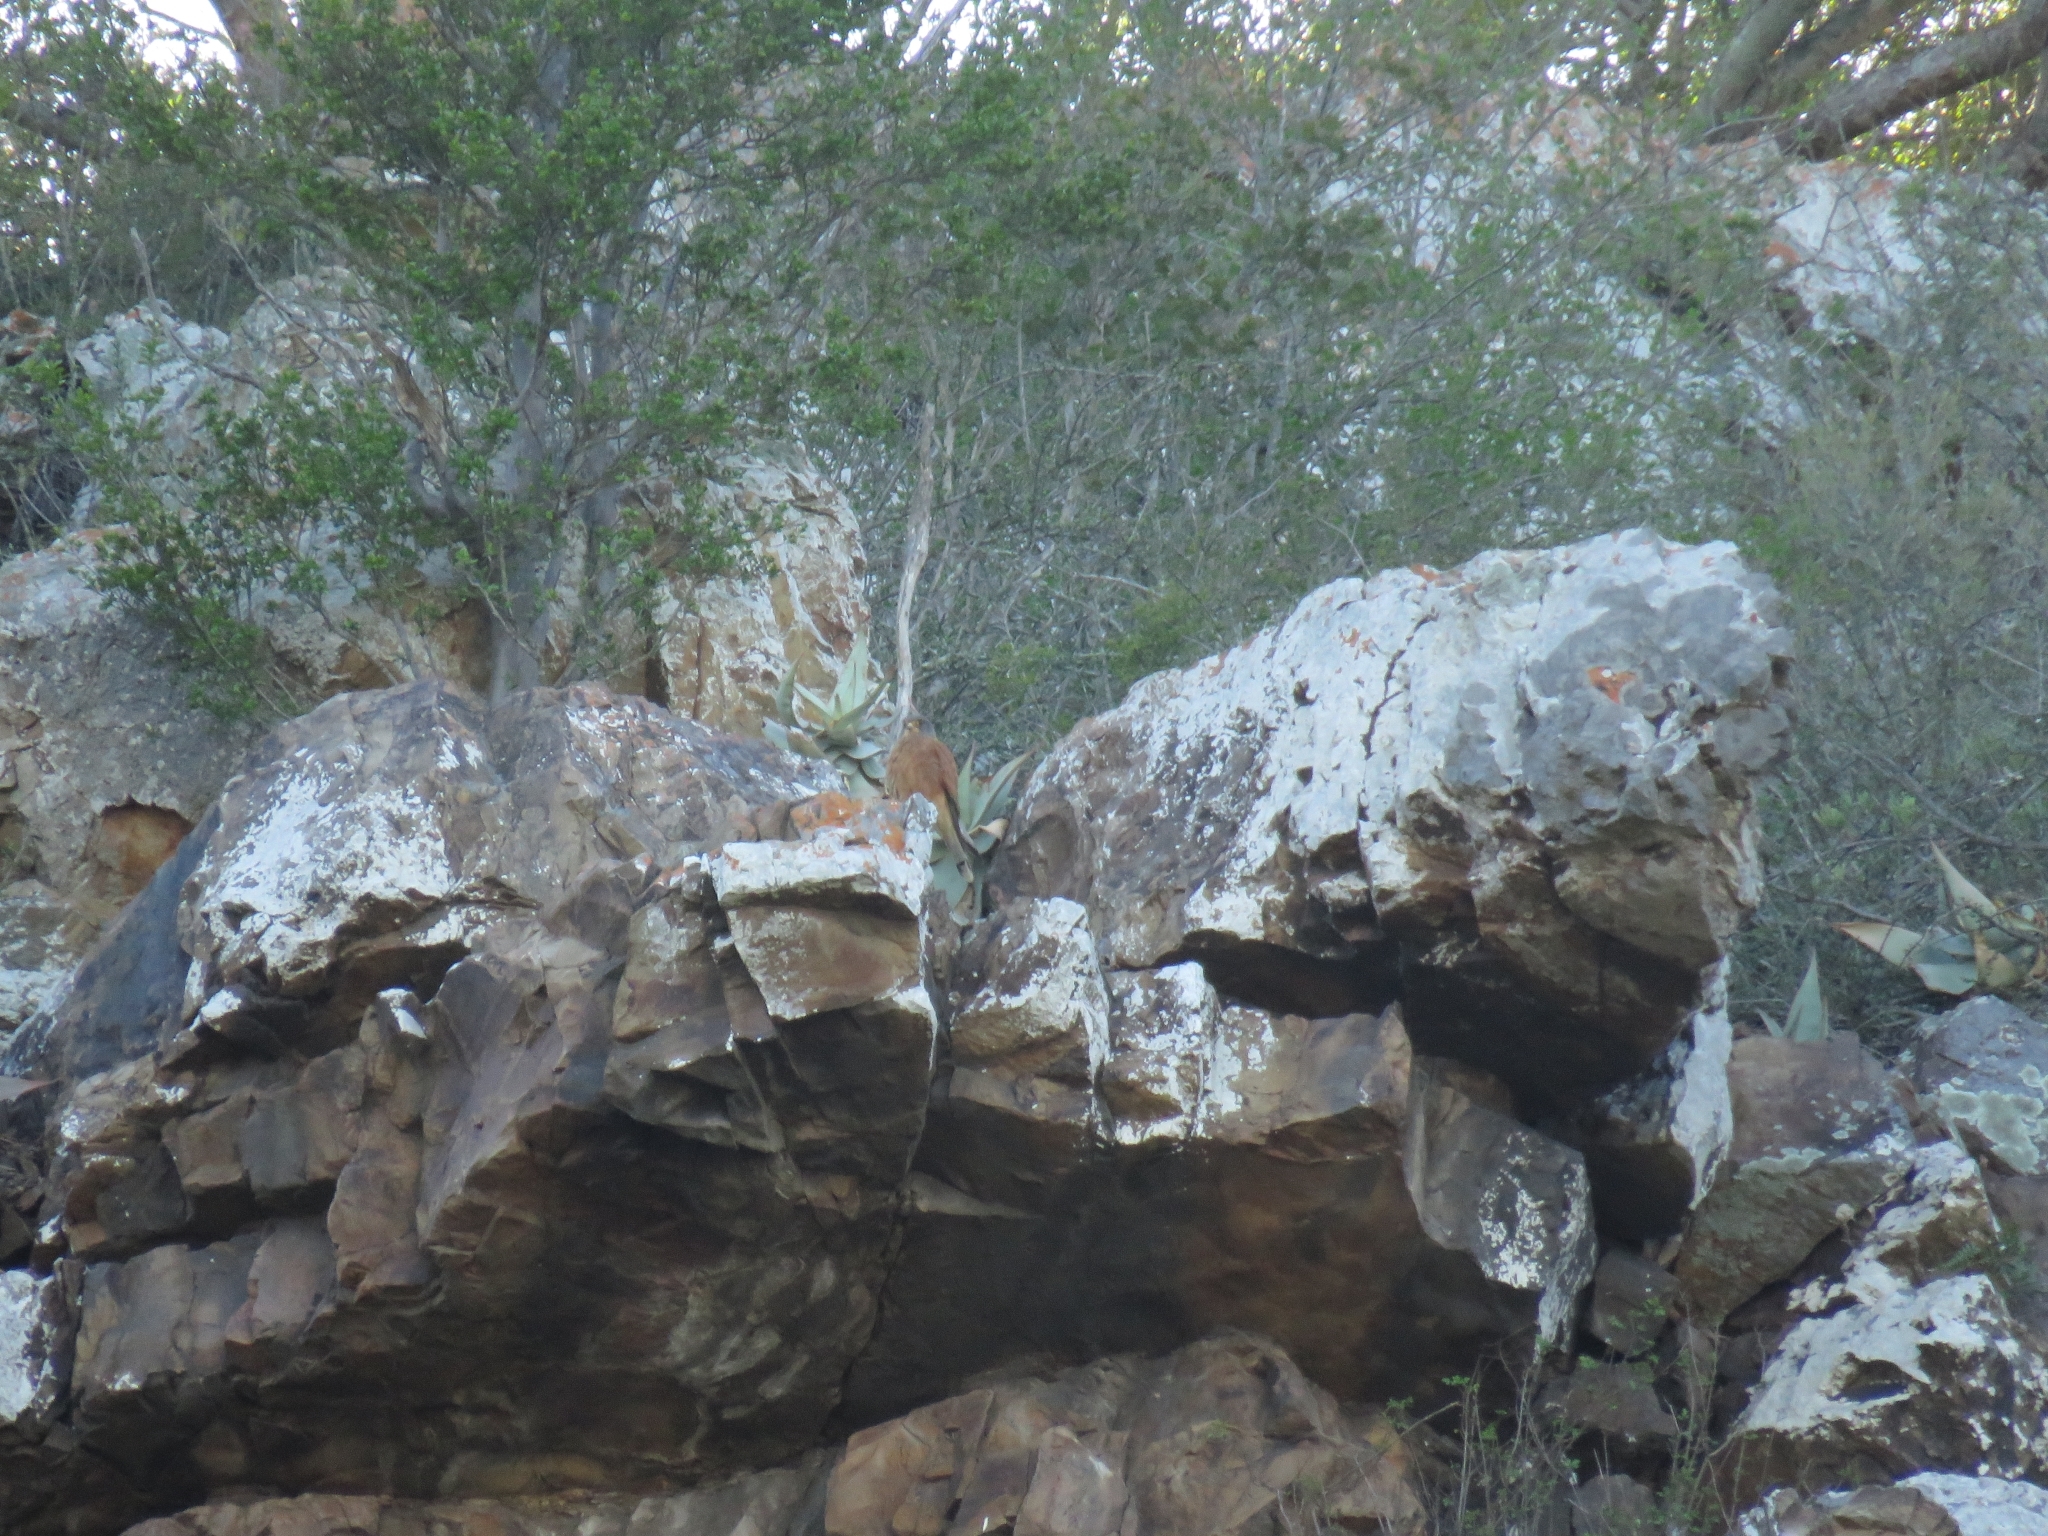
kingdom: Animalia
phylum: Chordata
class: Aves
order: Falconiformes
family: Falconidae
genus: Falco
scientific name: Falco rupicolus
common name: Rock kestrel
